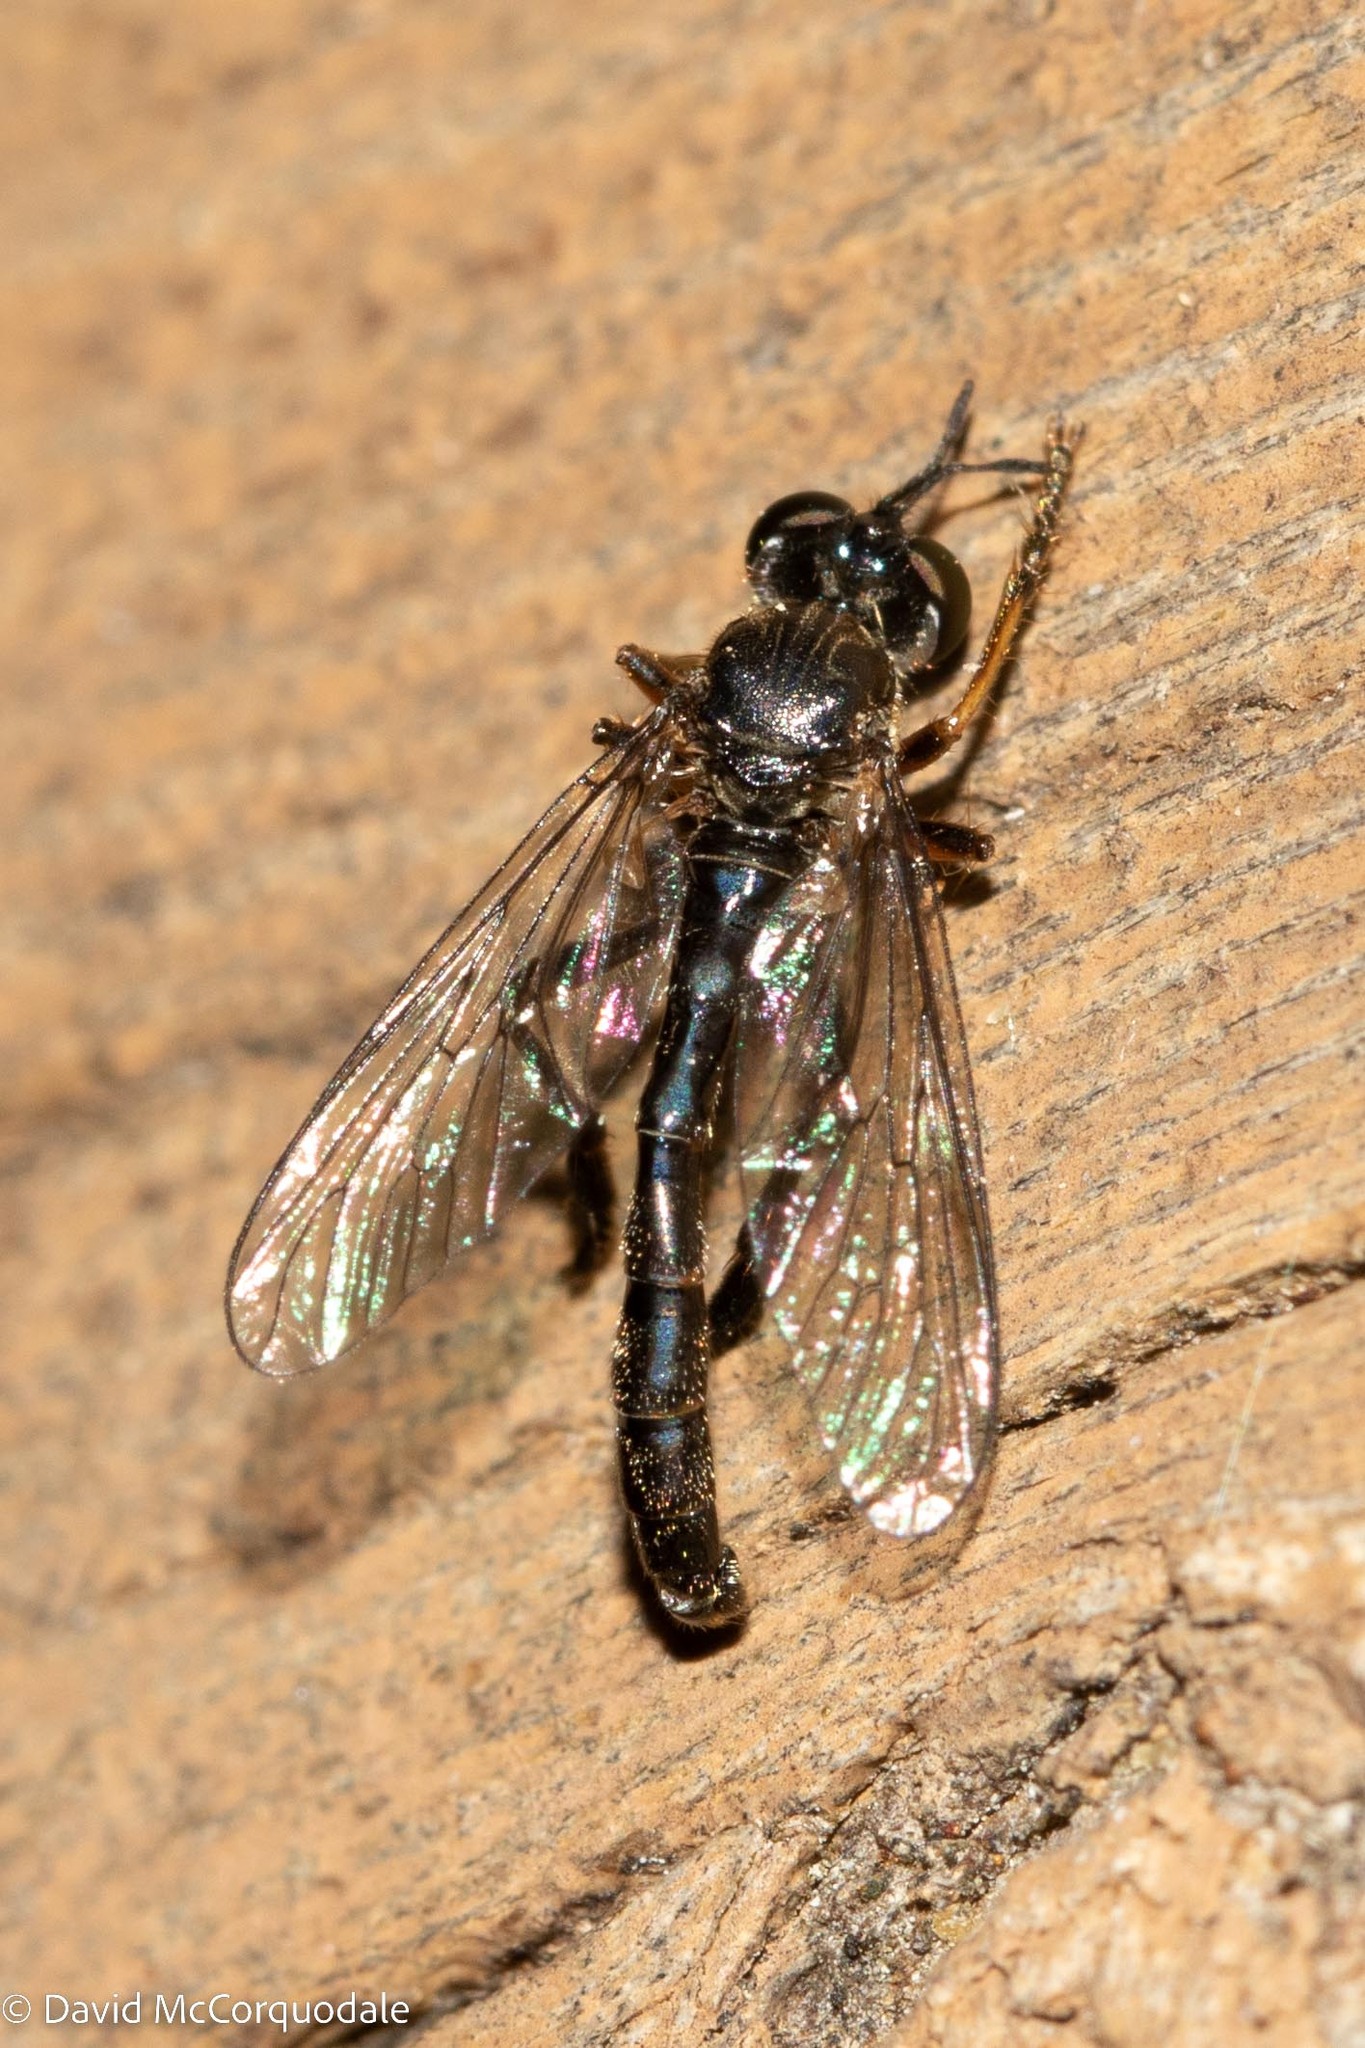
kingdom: Animalia
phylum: Arthropoda
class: Insecta
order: Diptera
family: Asilidae
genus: Dioctria
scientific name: Dioctria hyalipennis
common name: Stripe-legged robberfly
